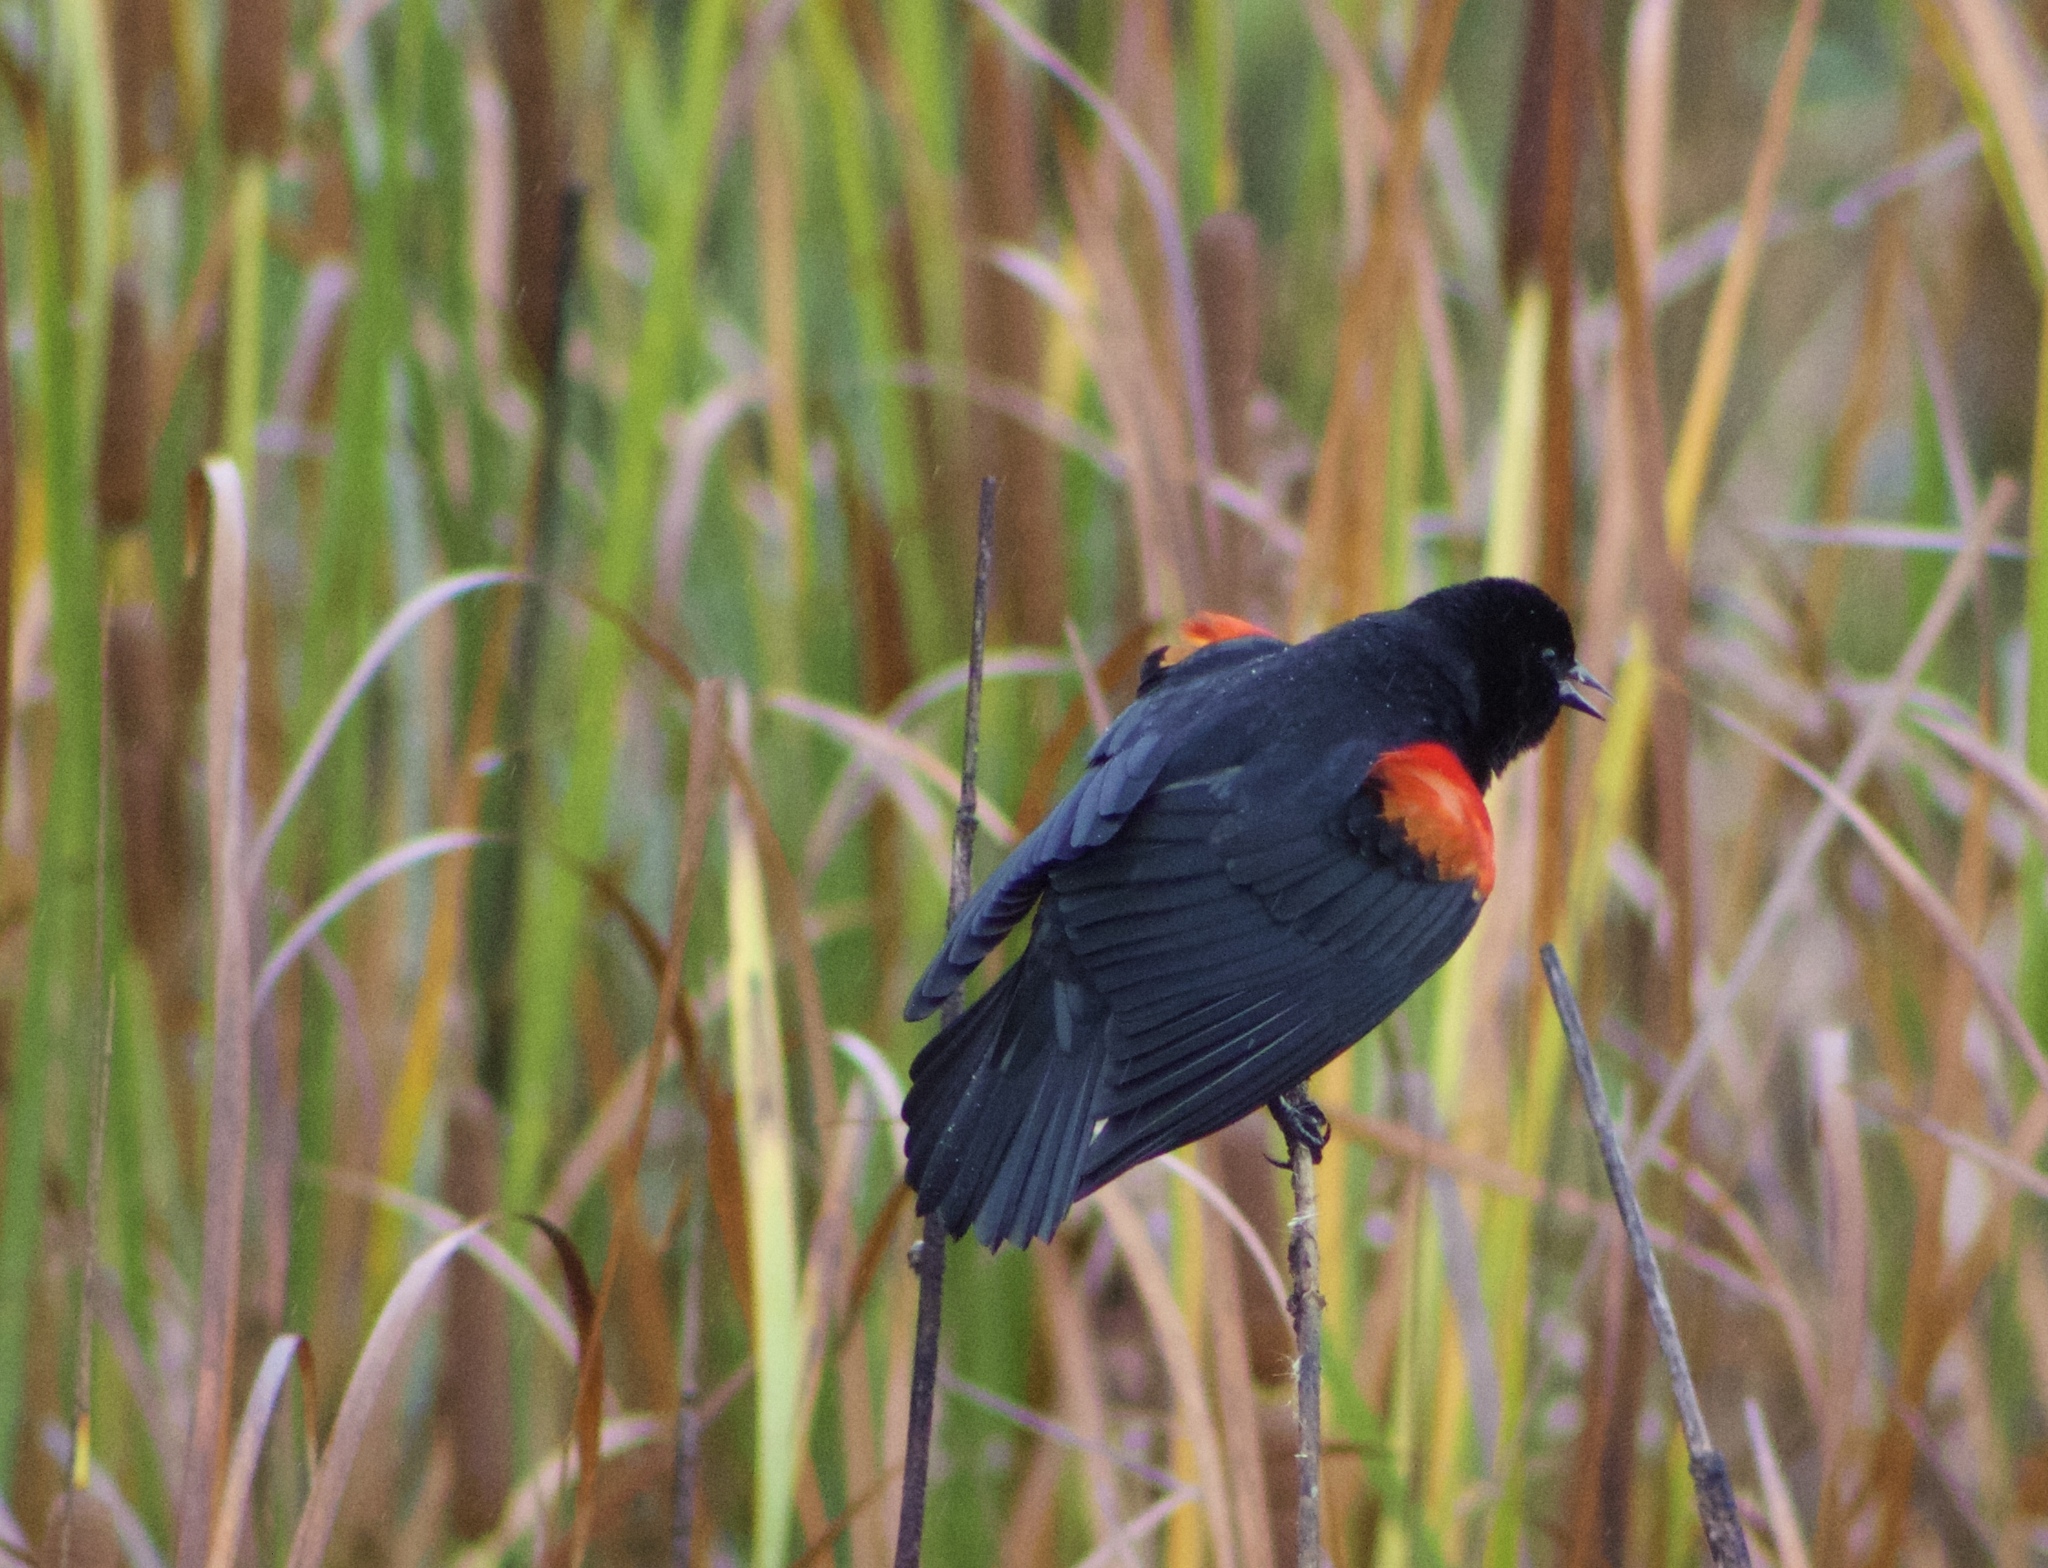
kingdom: Animalia
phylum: Chordata
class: Aves
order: Passeriformes
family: Icteridae
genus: Agelaius
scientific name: Agelaius phoeniceus
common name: Red-winged blackbird
